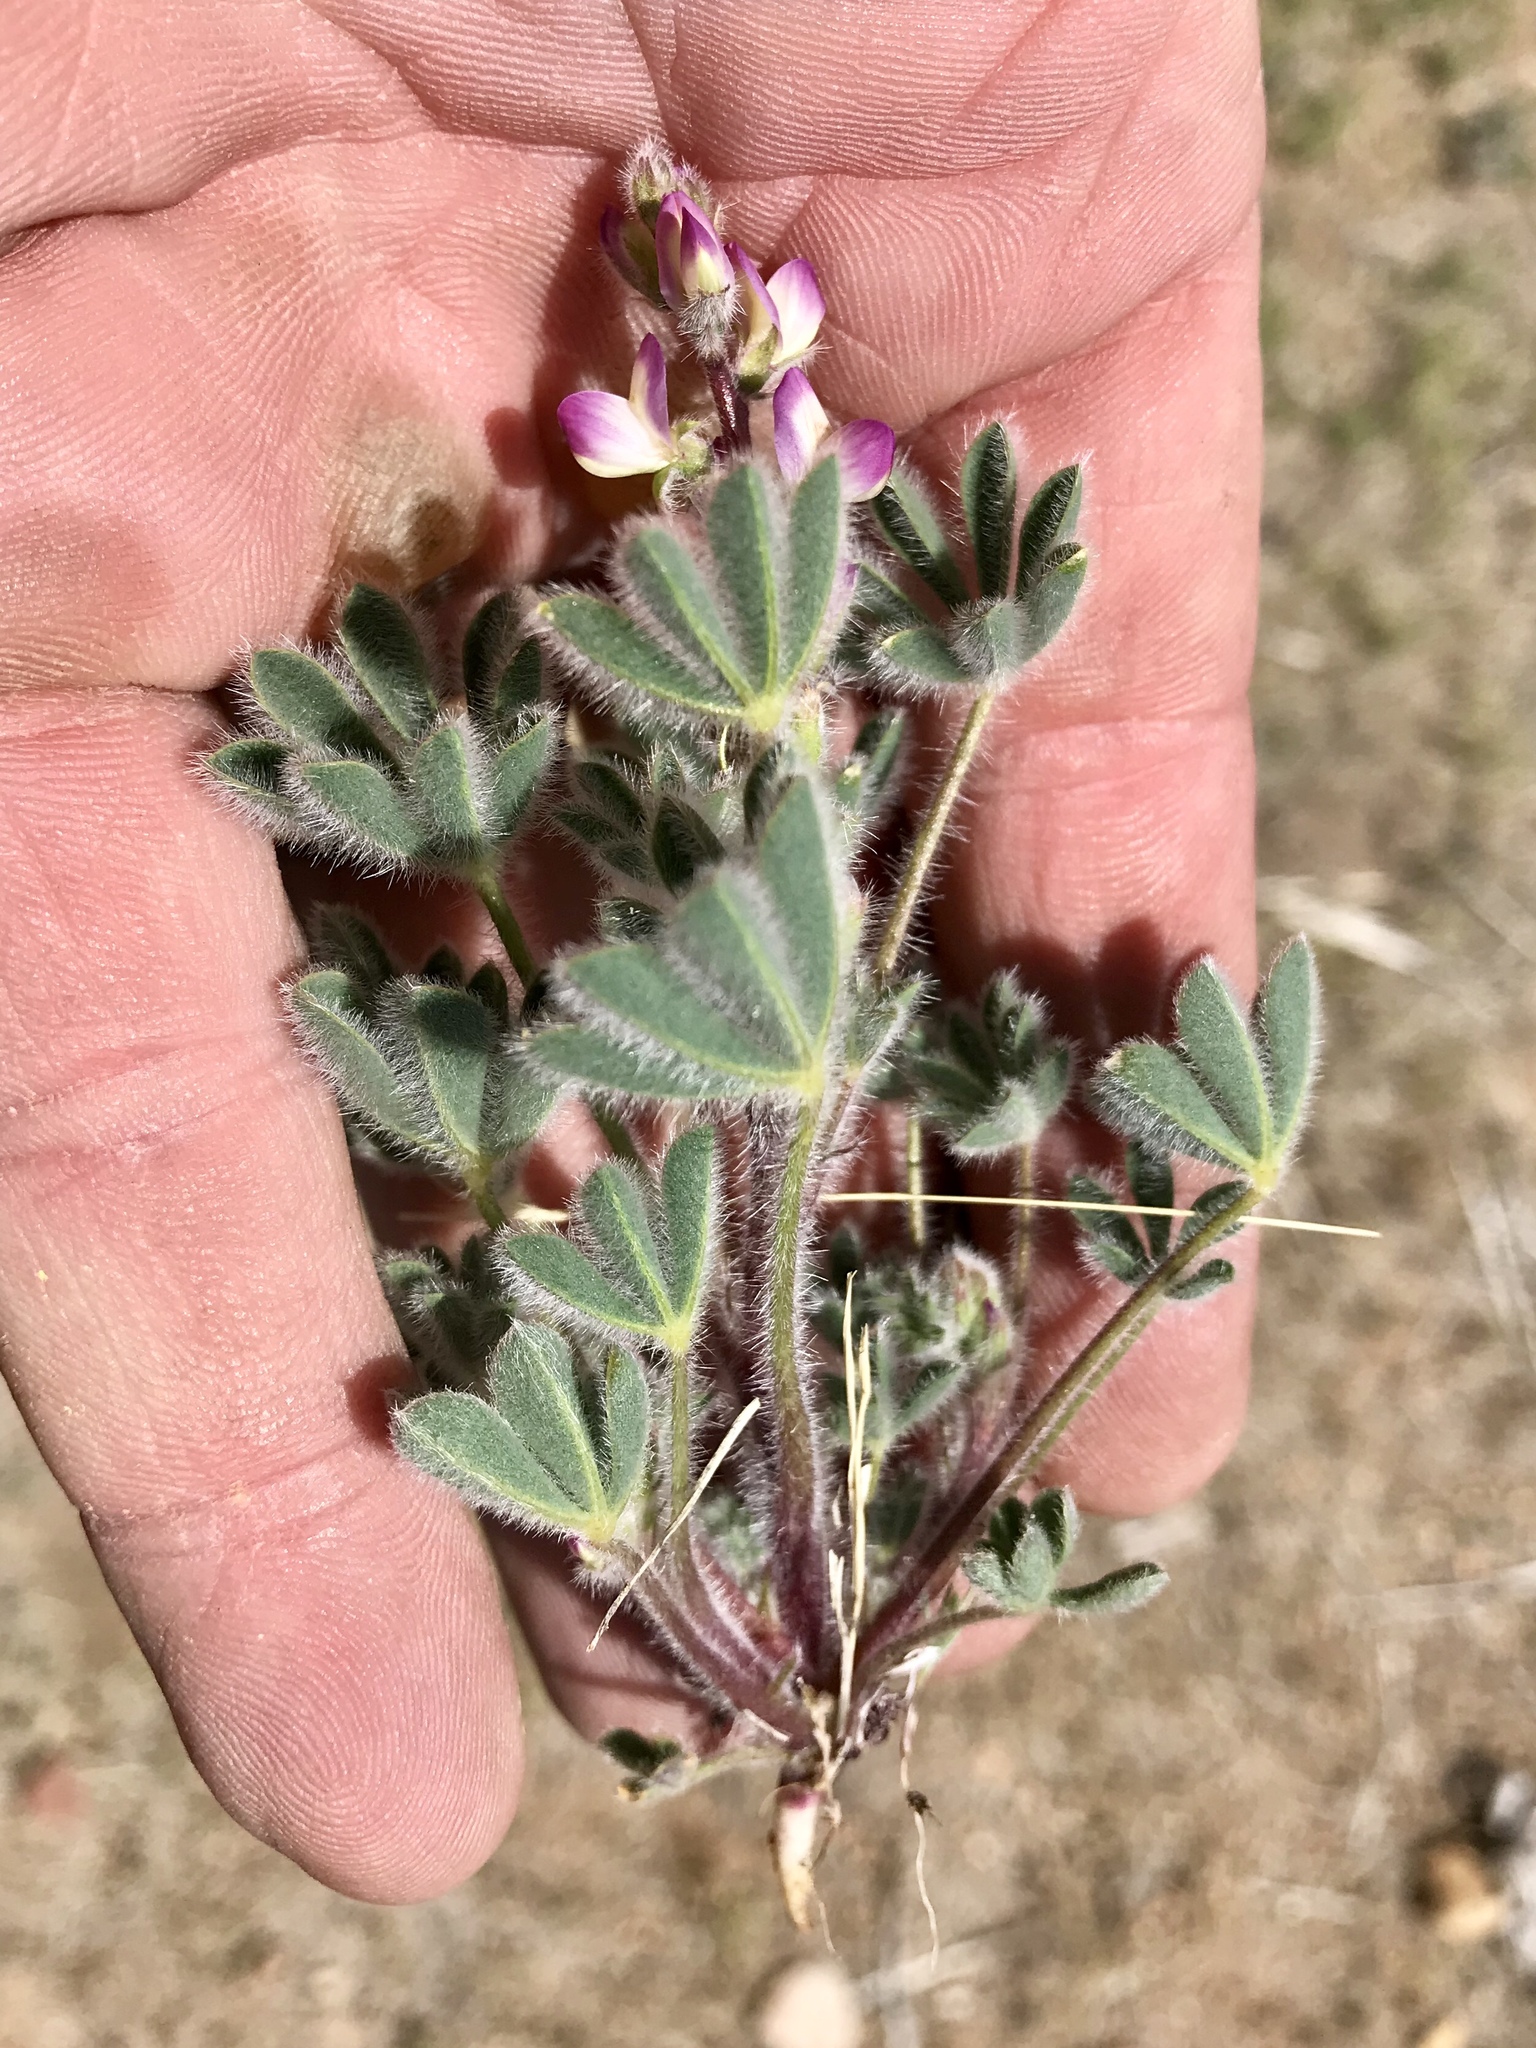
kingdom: Plantae
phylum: Tracheophyta
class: Magnoliopsida
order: Fabales
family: Fabaceae
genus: Lupinus
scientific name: Lupinus concinnus
